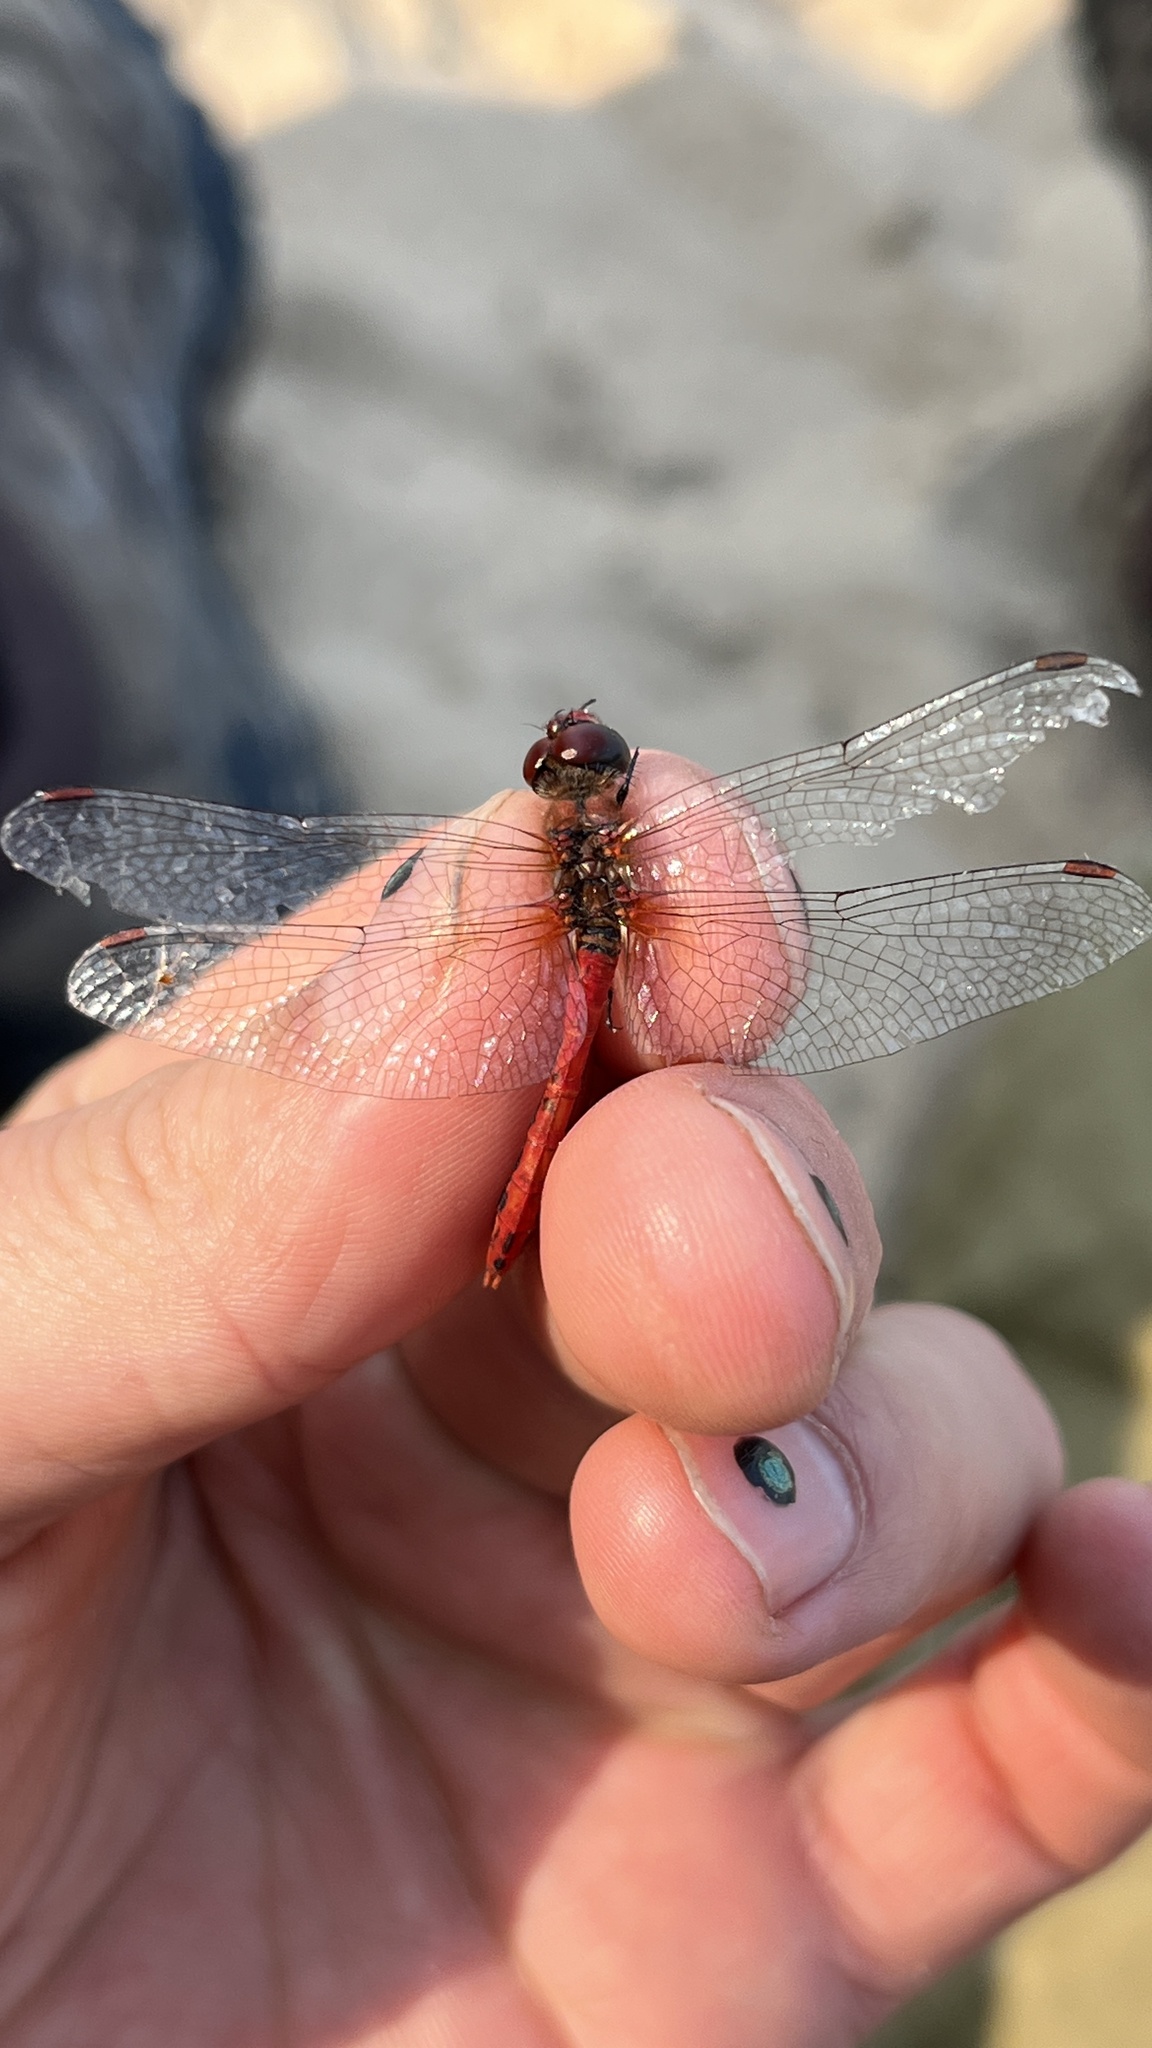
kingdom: Animalia
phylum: Arthropoda
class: Insecta
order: Odonata
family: Libellulidae
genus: Sympetrum
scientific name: Sympetrum sanguineum
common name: Ruddy darter
